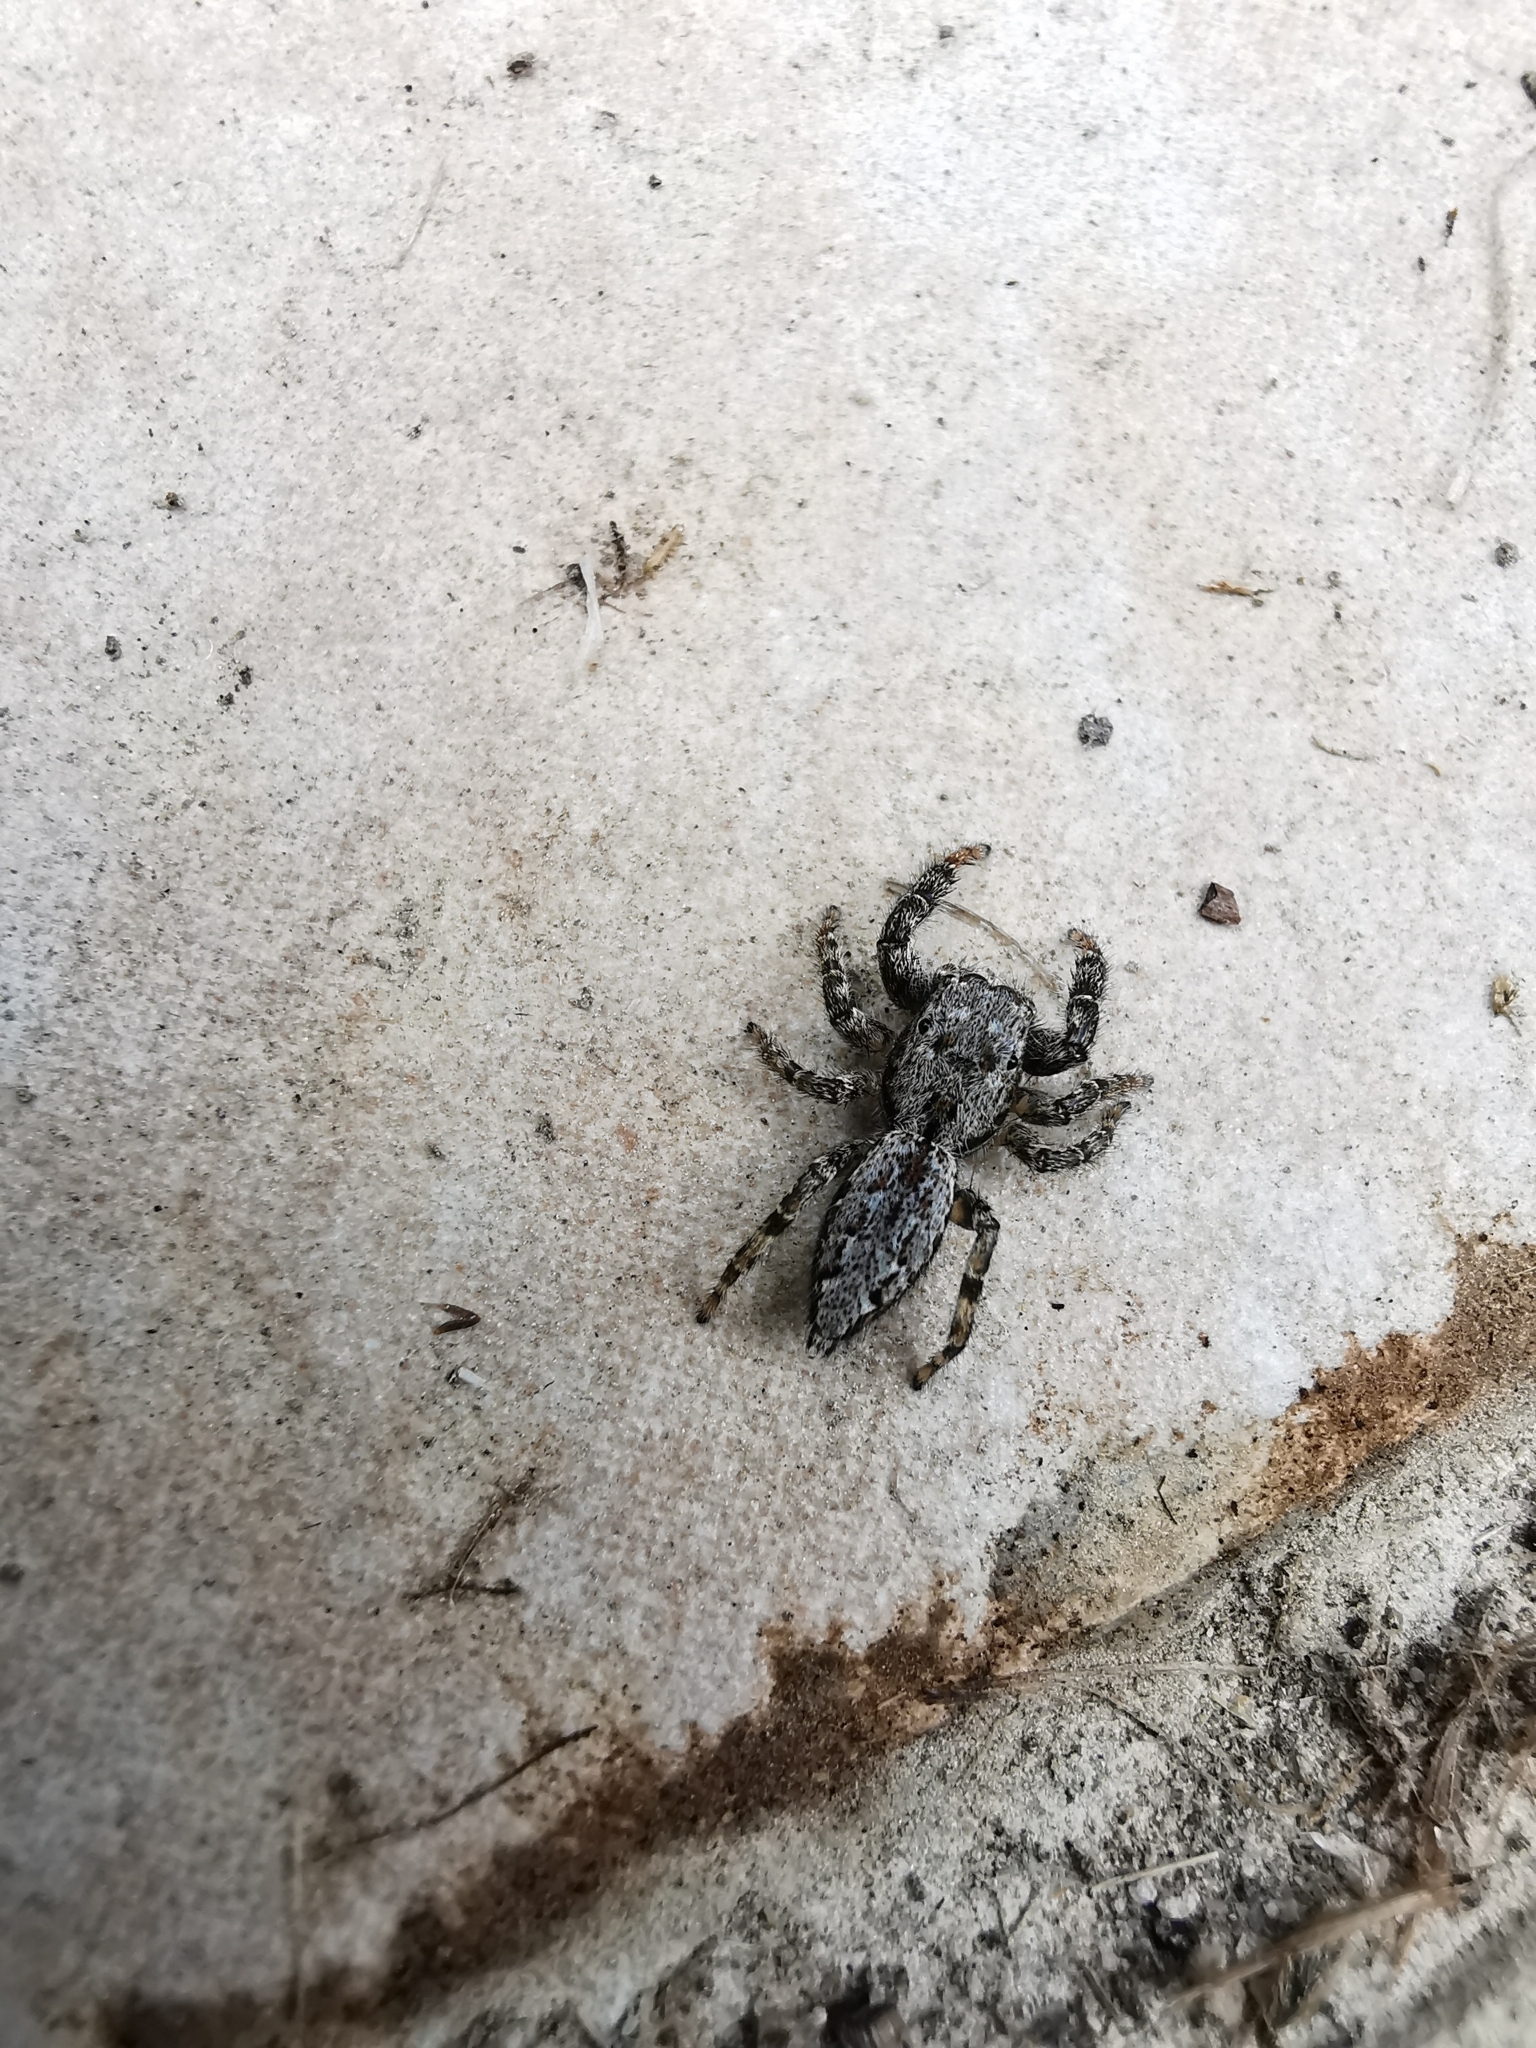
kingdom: Animalia
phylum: Arthropoda
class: Arachnida
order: Araneae
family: Salticidae
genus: Marpissa
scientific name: Marpissa muscosa
